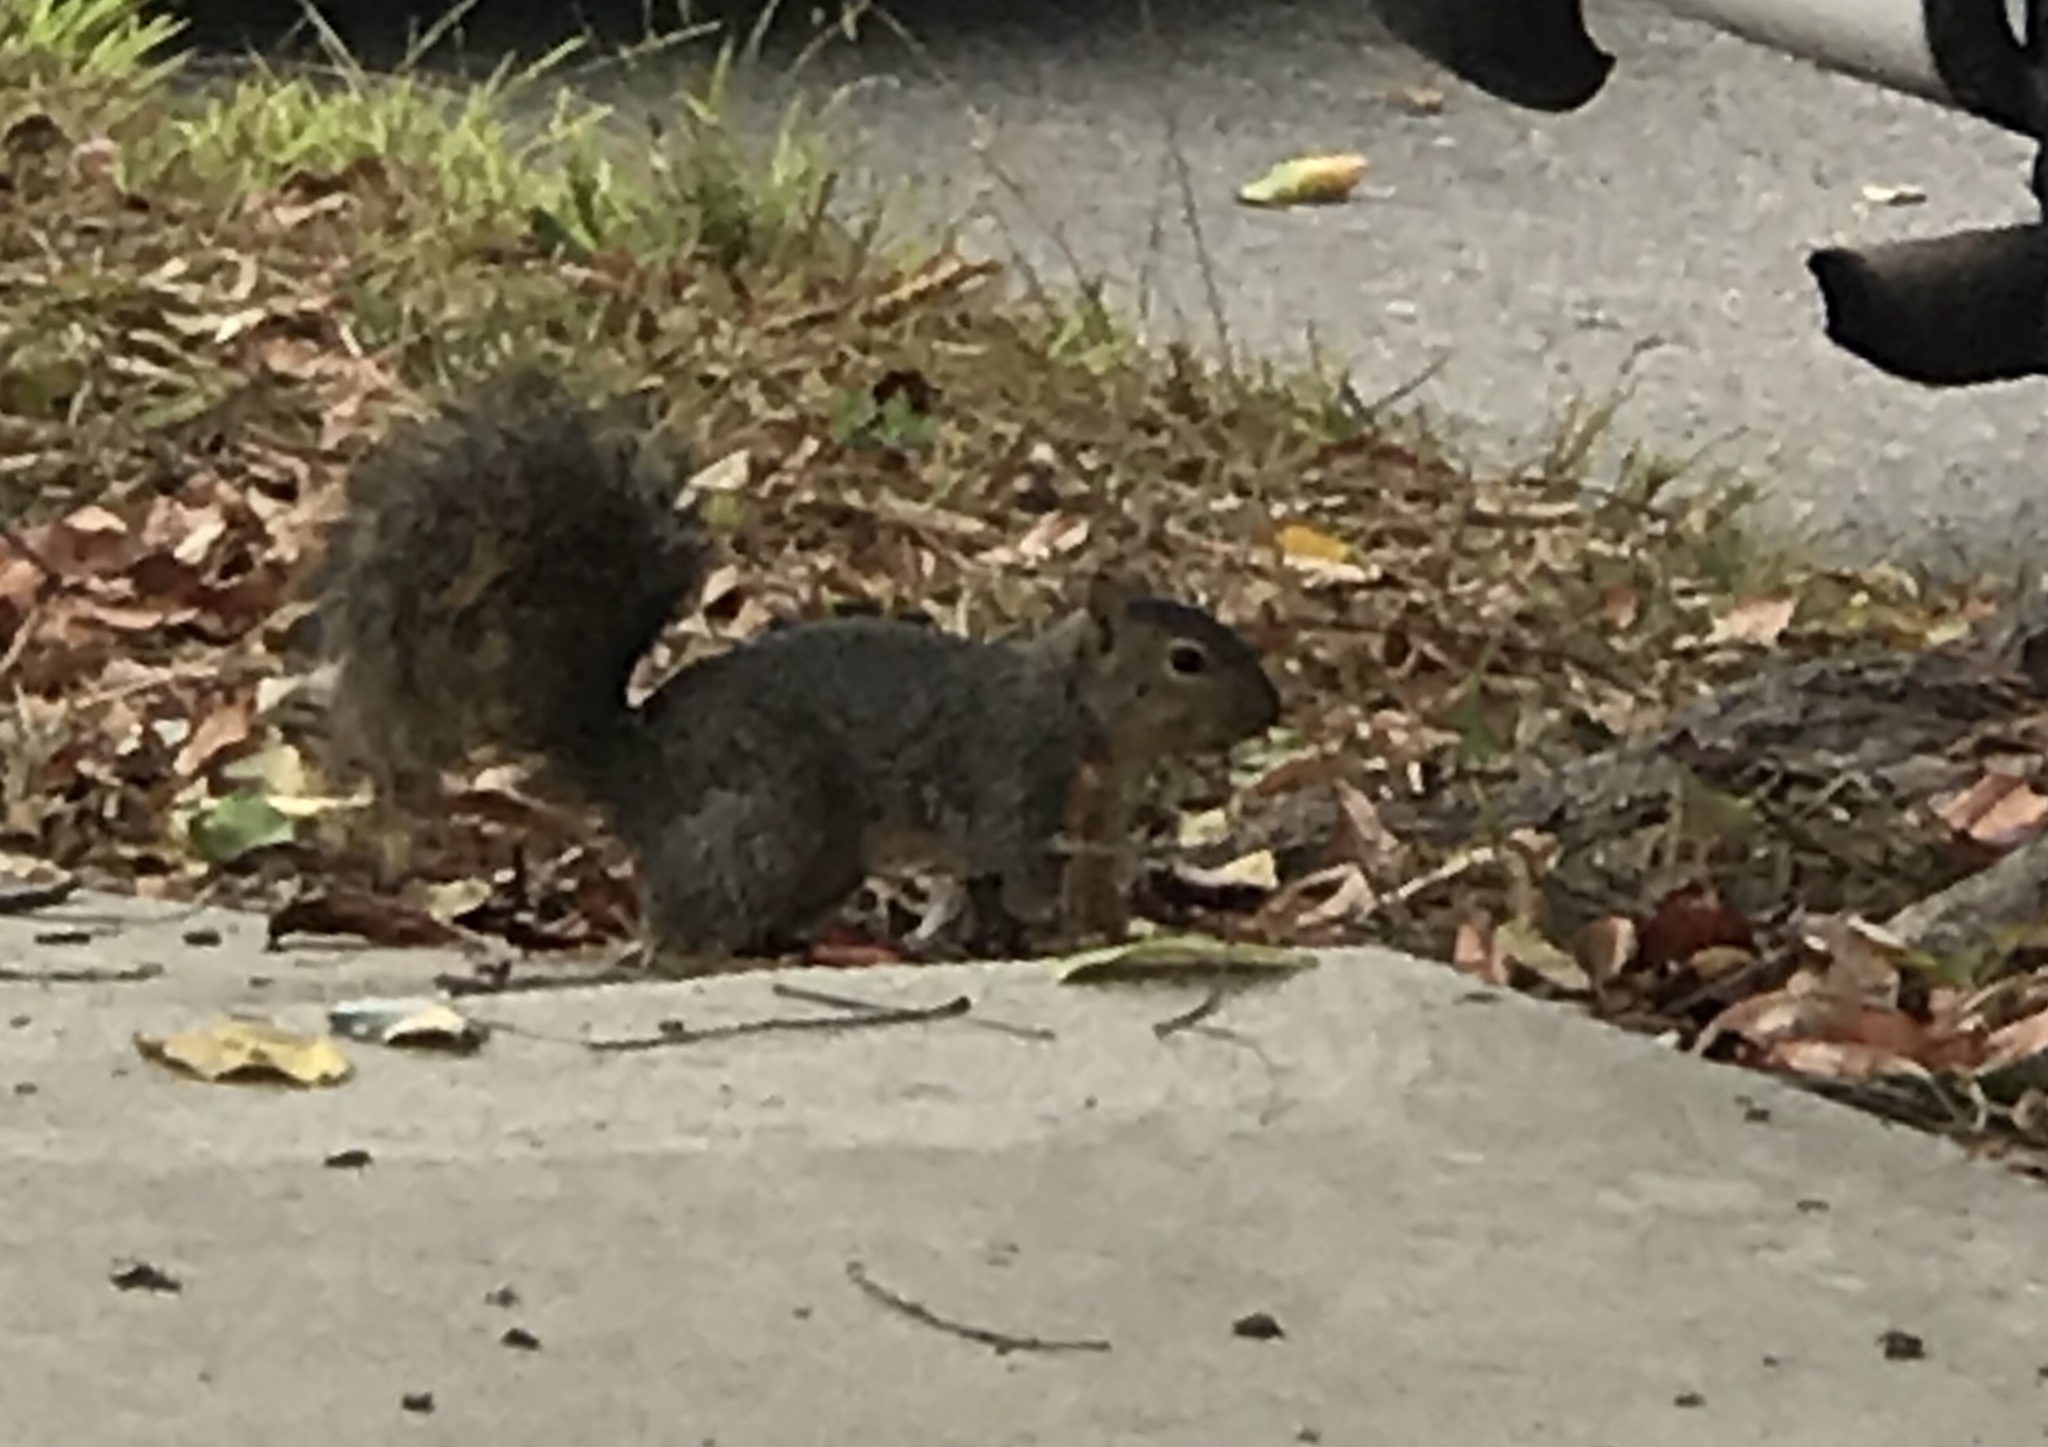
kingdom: Animalia
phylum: Chordata
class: Mammalia
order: Rodentia
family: Sciuridae
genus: Sciurus
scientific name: Sciurus niger
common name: Fox squirrel
